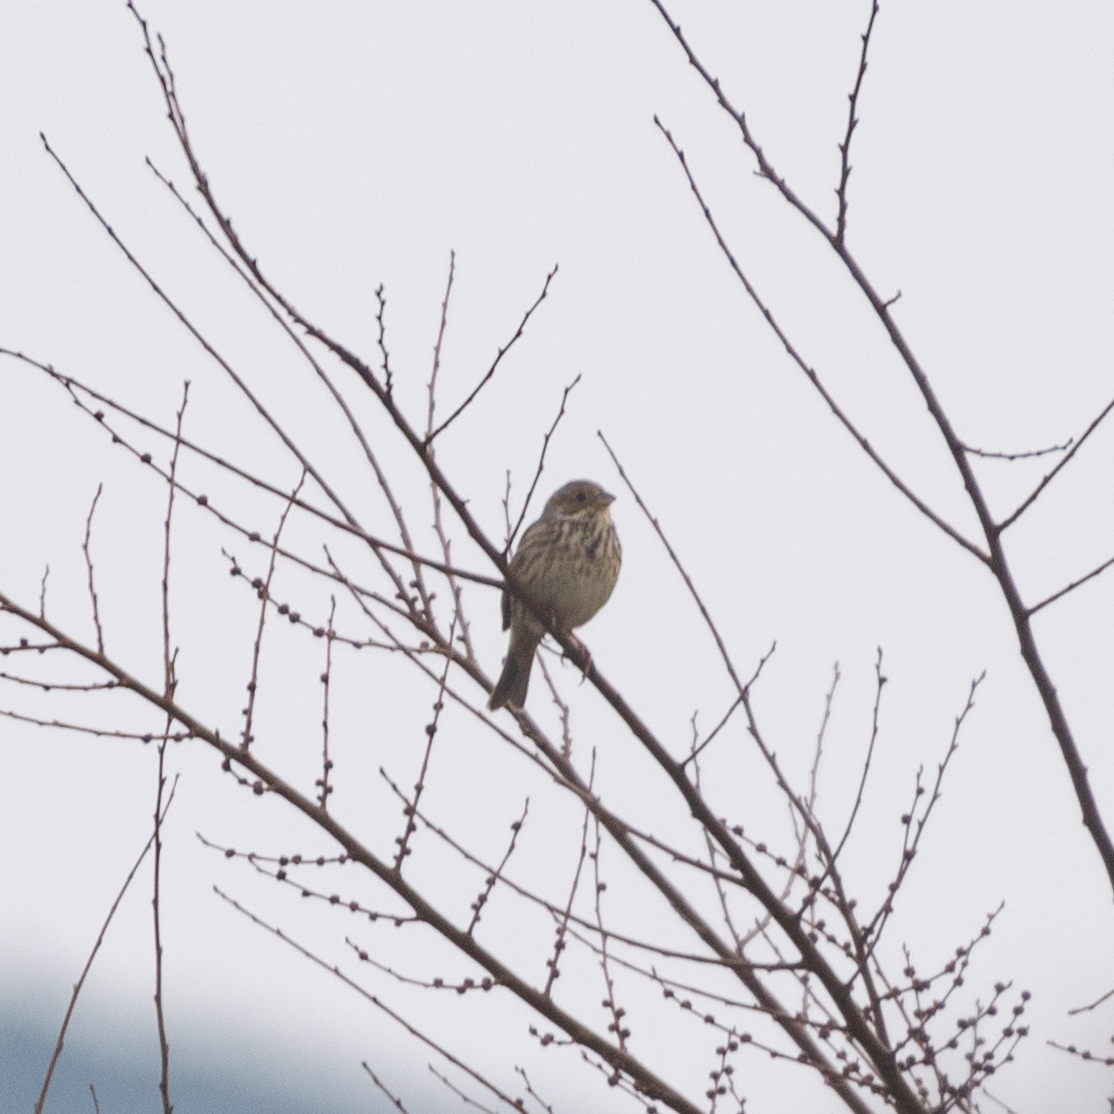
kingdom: Animalia
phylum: Chordata
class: Aves
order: Passeriformes
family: Emberizidae
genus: Emberiza
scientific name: Emberiza calandra
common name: Corn bunting
